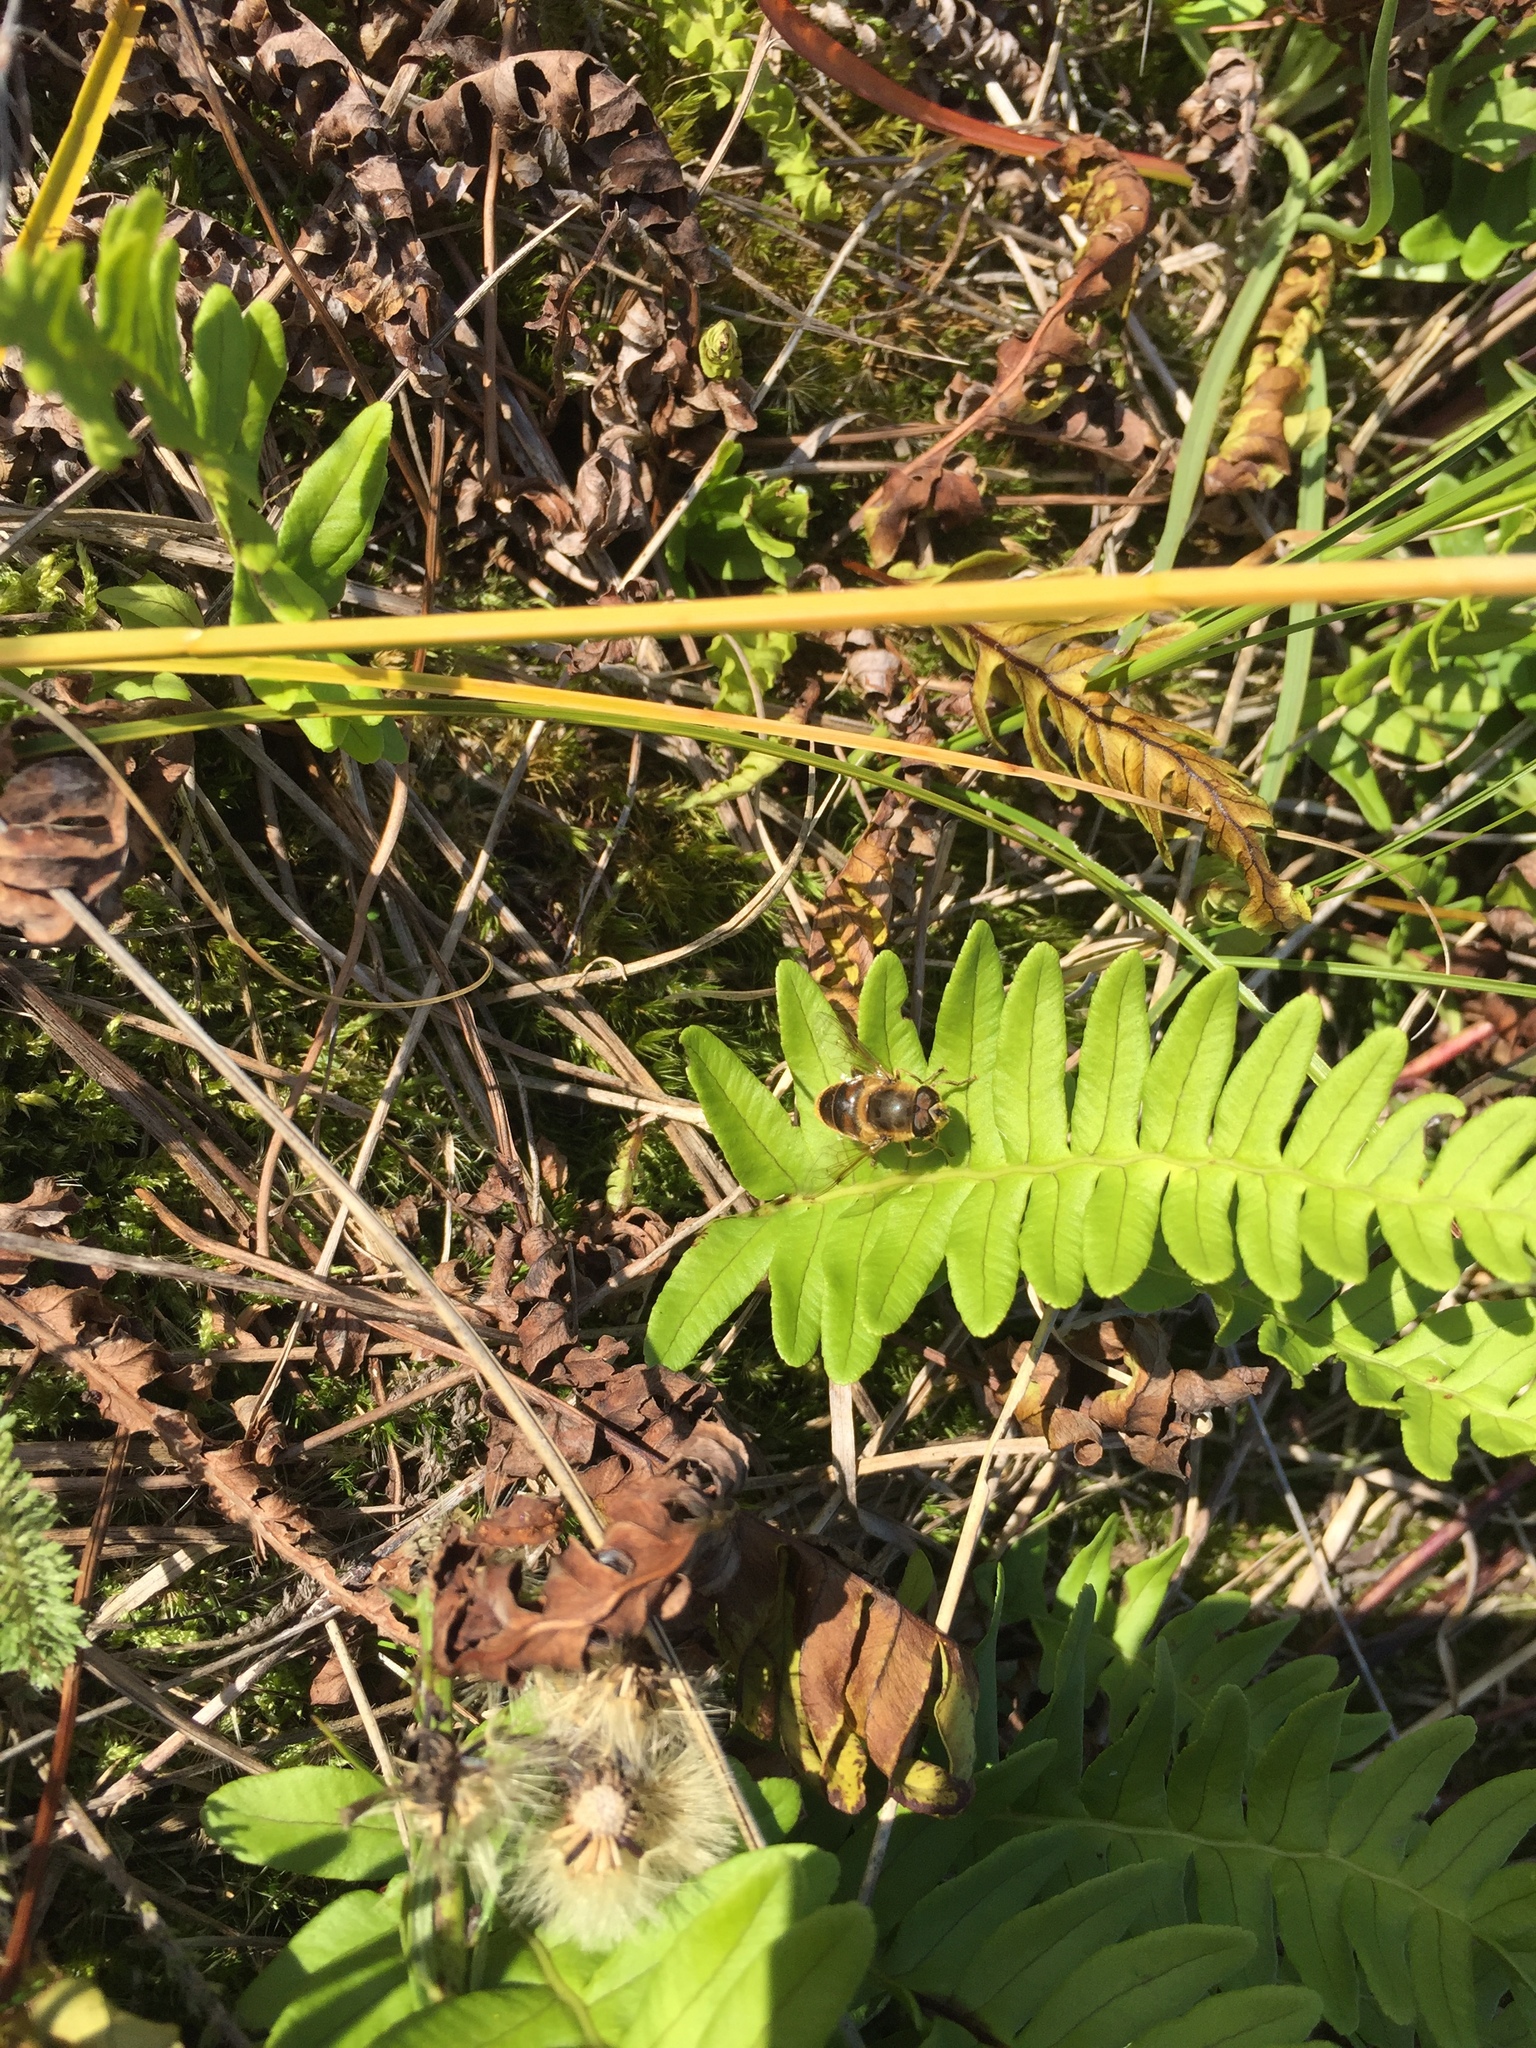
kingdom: Animalia
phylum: Arthropoda
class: Insecta
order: Diptera
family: Syrphidae
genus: Eristalis
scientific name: Eristalis tenax
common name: Drone fly
